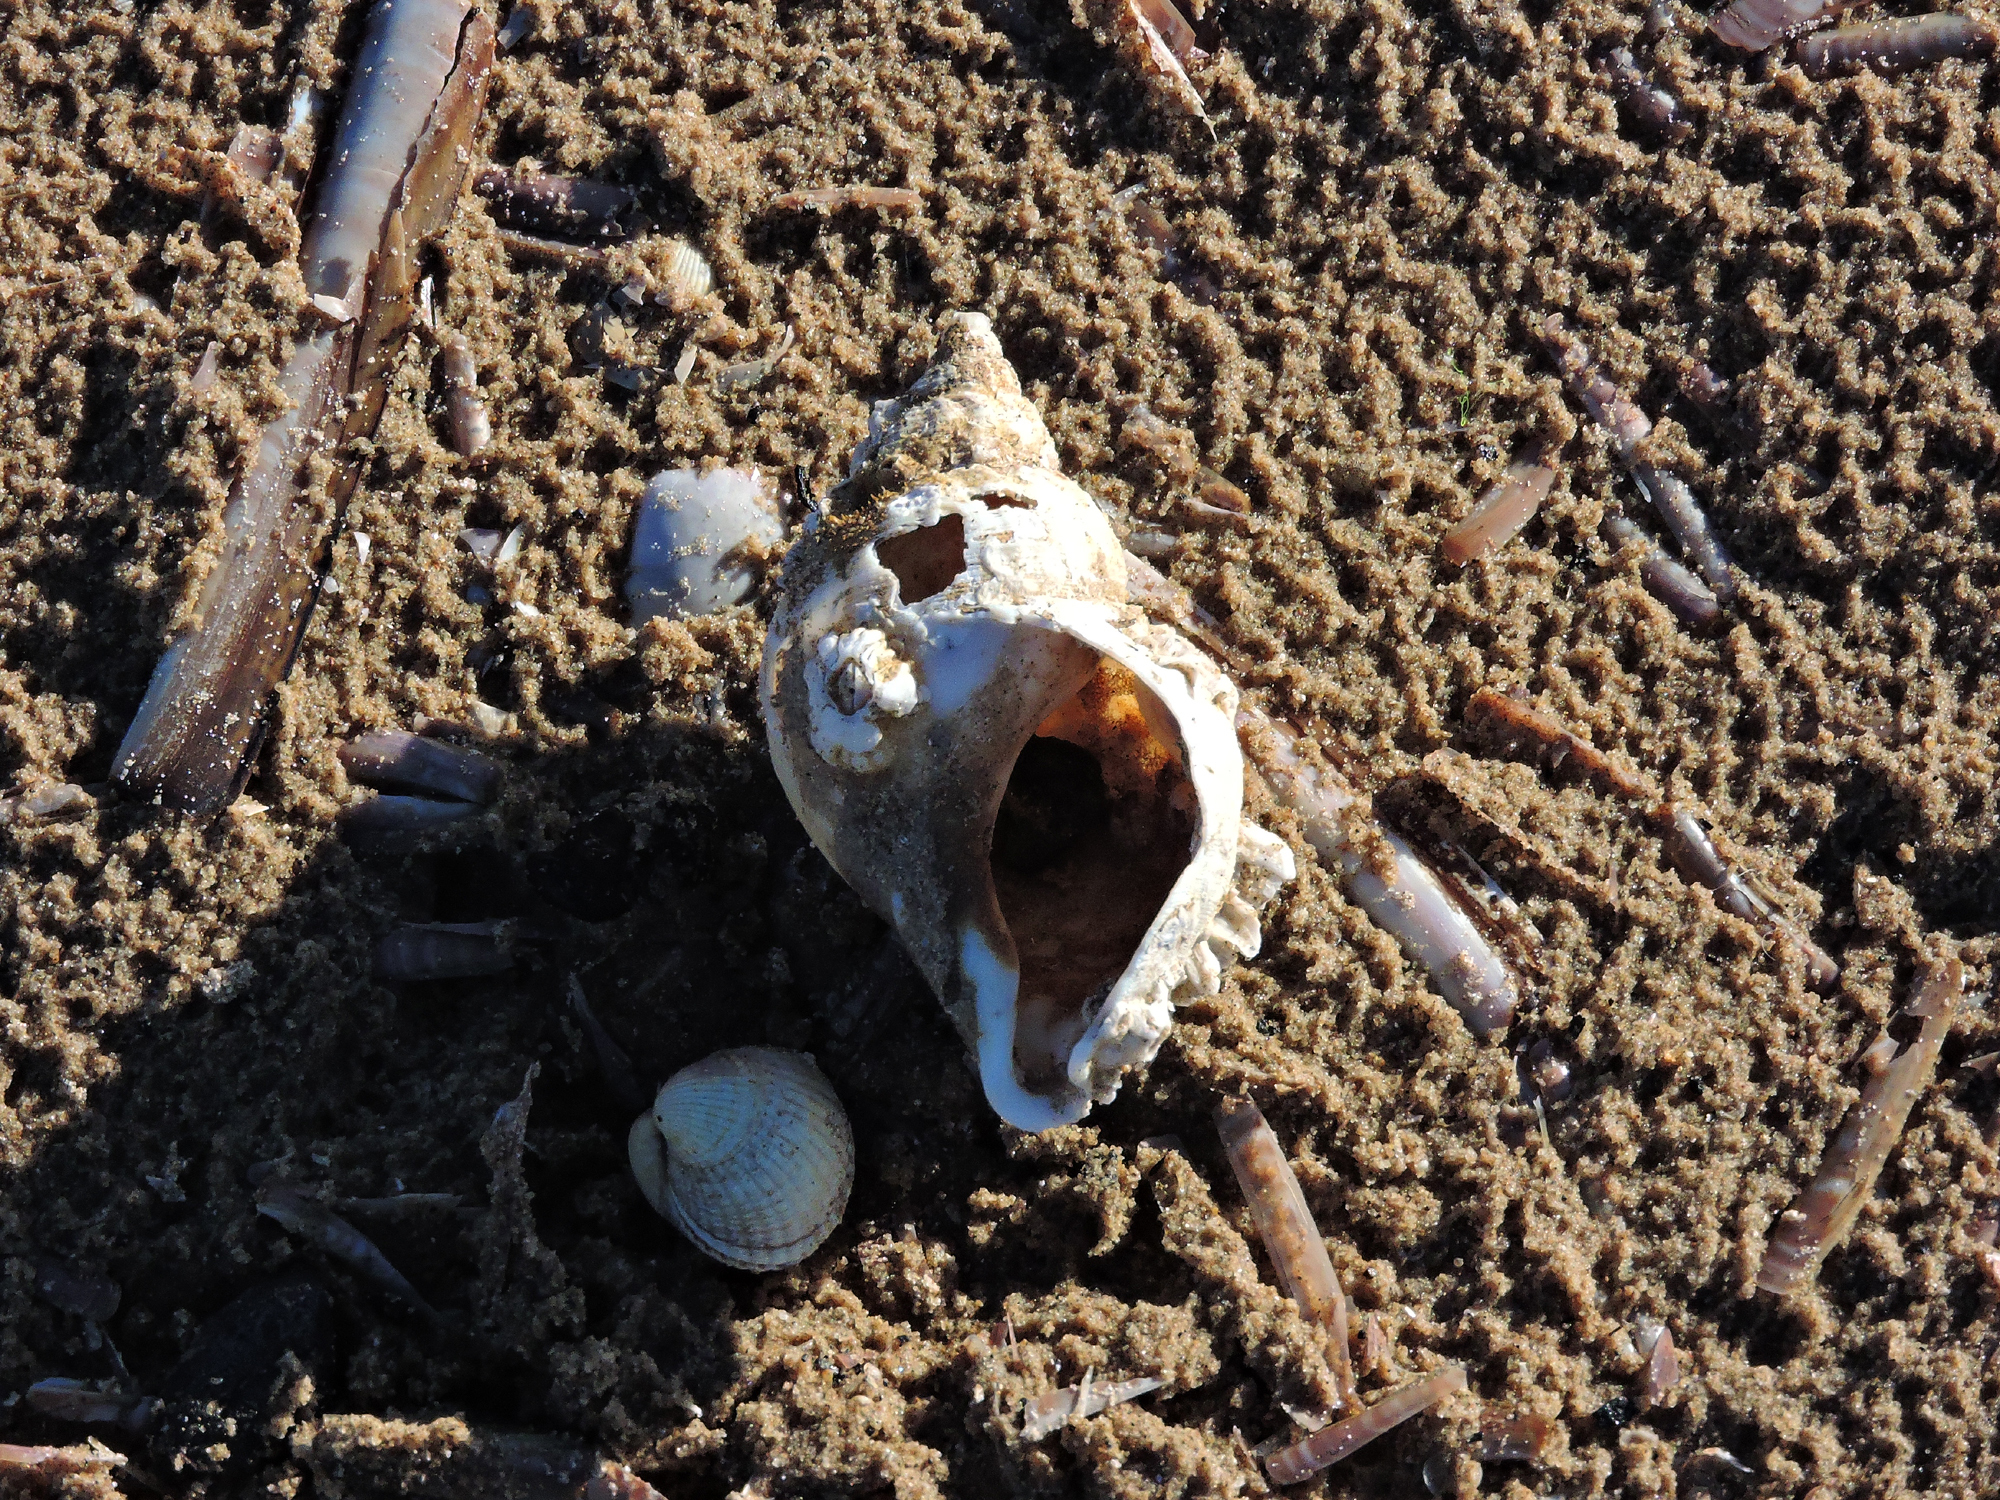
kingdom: Animalia
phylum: Mollusca
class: Gastropoda
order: Neogastropoda
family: Buccinidae
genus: Buccinum
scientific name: Buccinum undatum
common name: Common whelk
